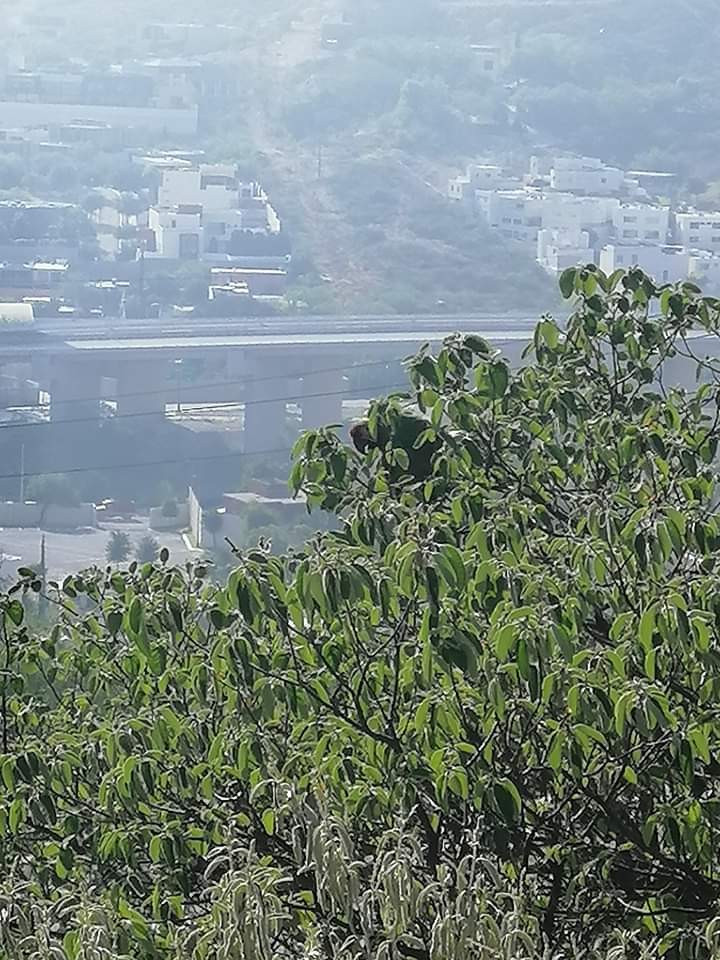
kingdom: Animalia
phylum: Chordata
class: Aves
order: Psittaciformes
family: Psittacidae
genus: Ara
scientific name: Ara militaris
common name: Military macaw
